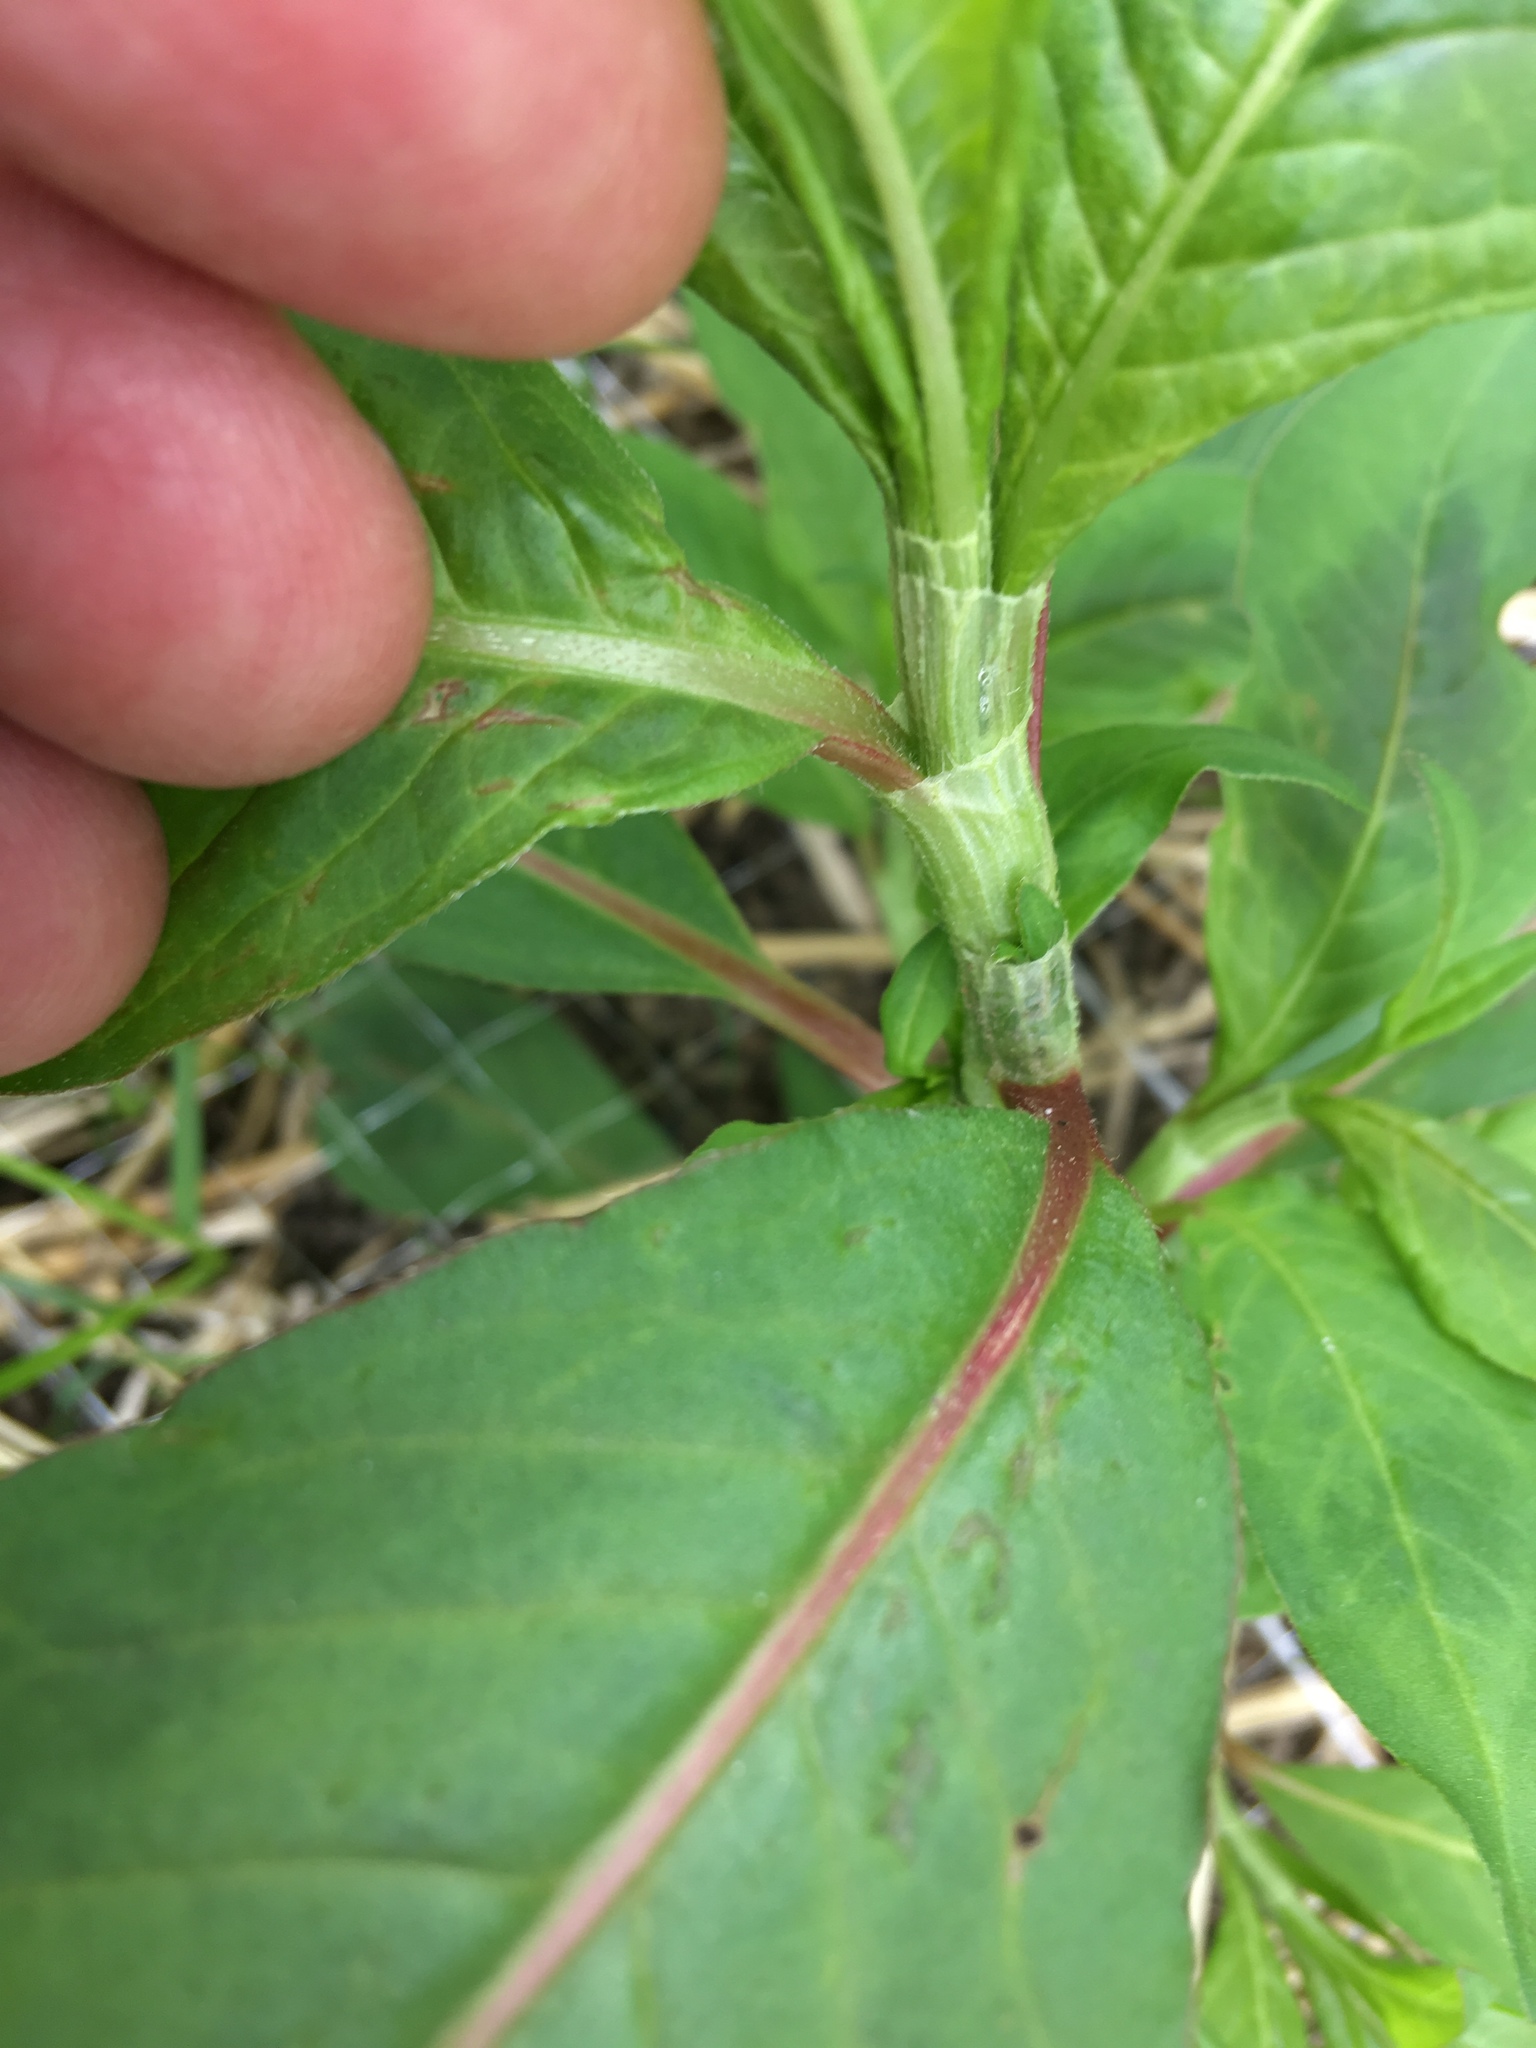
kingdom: Plantae
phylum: Tracheophyta
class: Magnoliopsida
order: Caryophyllales
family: Polygonaceae
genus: Persicaria
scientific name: Persicaria lapathifolia
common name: Curlytop knotweed
